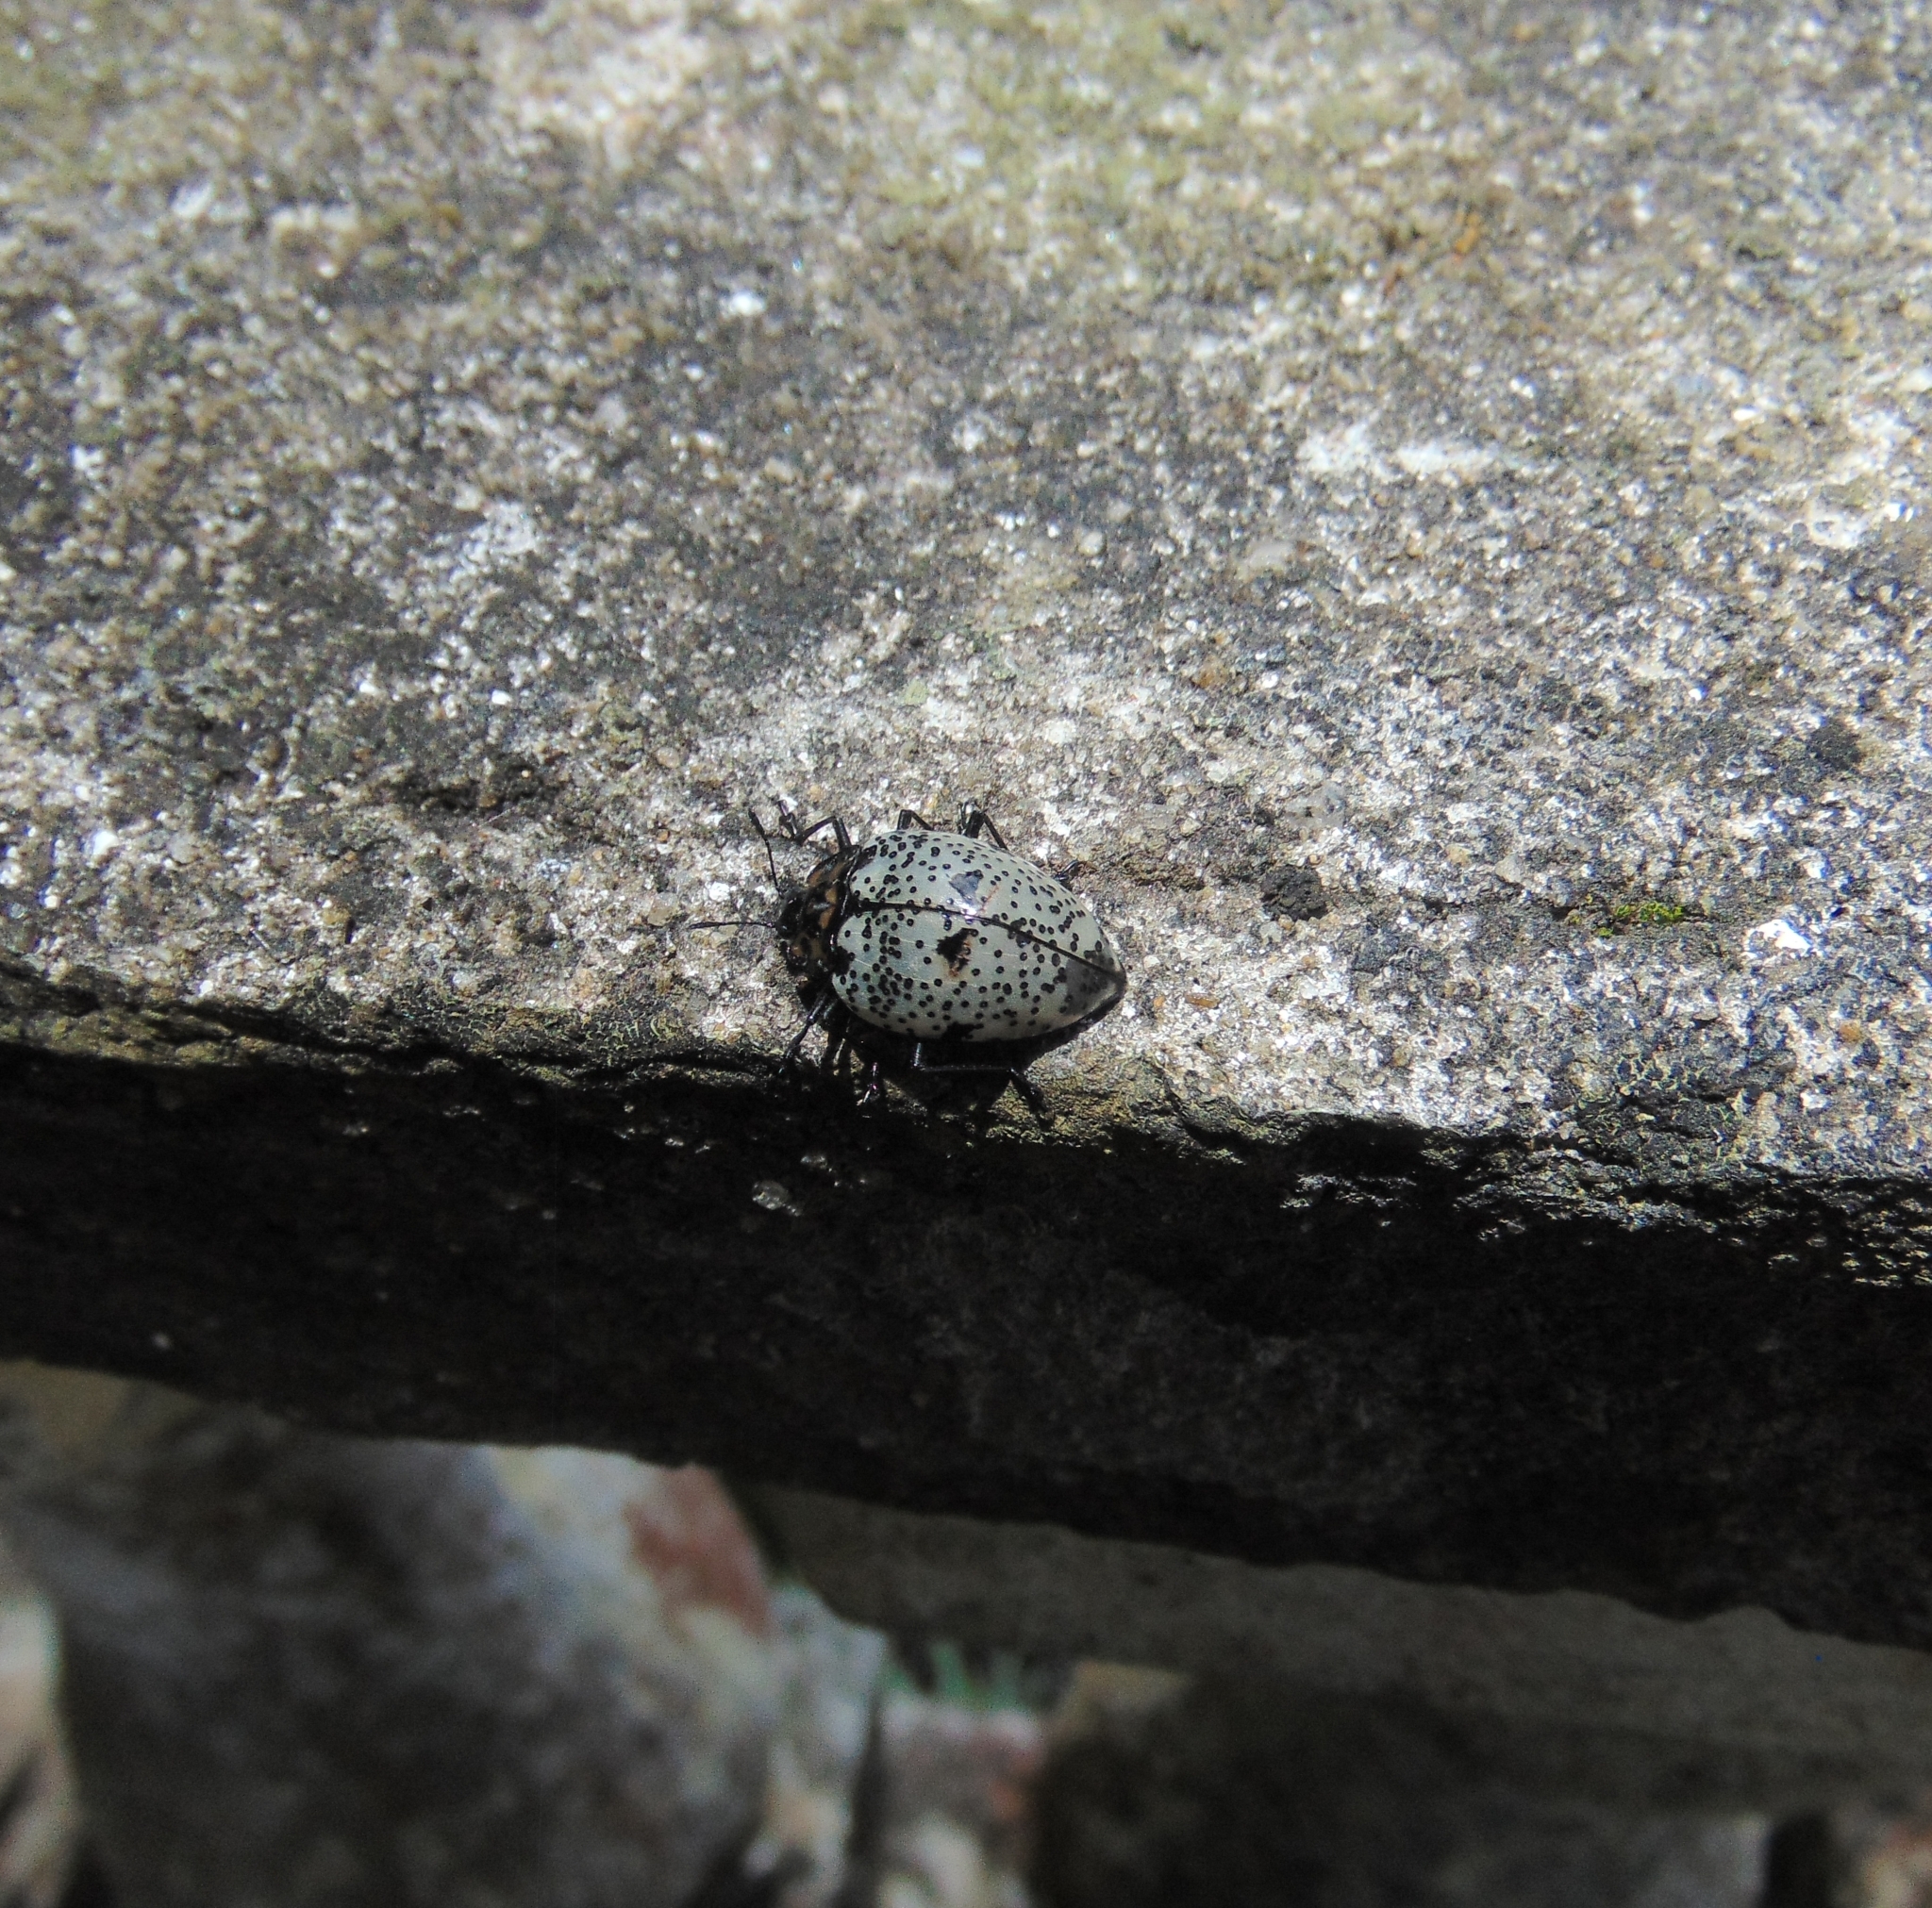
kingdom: Animalia
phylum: Arthropoda
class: Insecta
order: Coleoptera
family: Erotylidae
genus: Gibbifer
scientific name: Gibbifer
